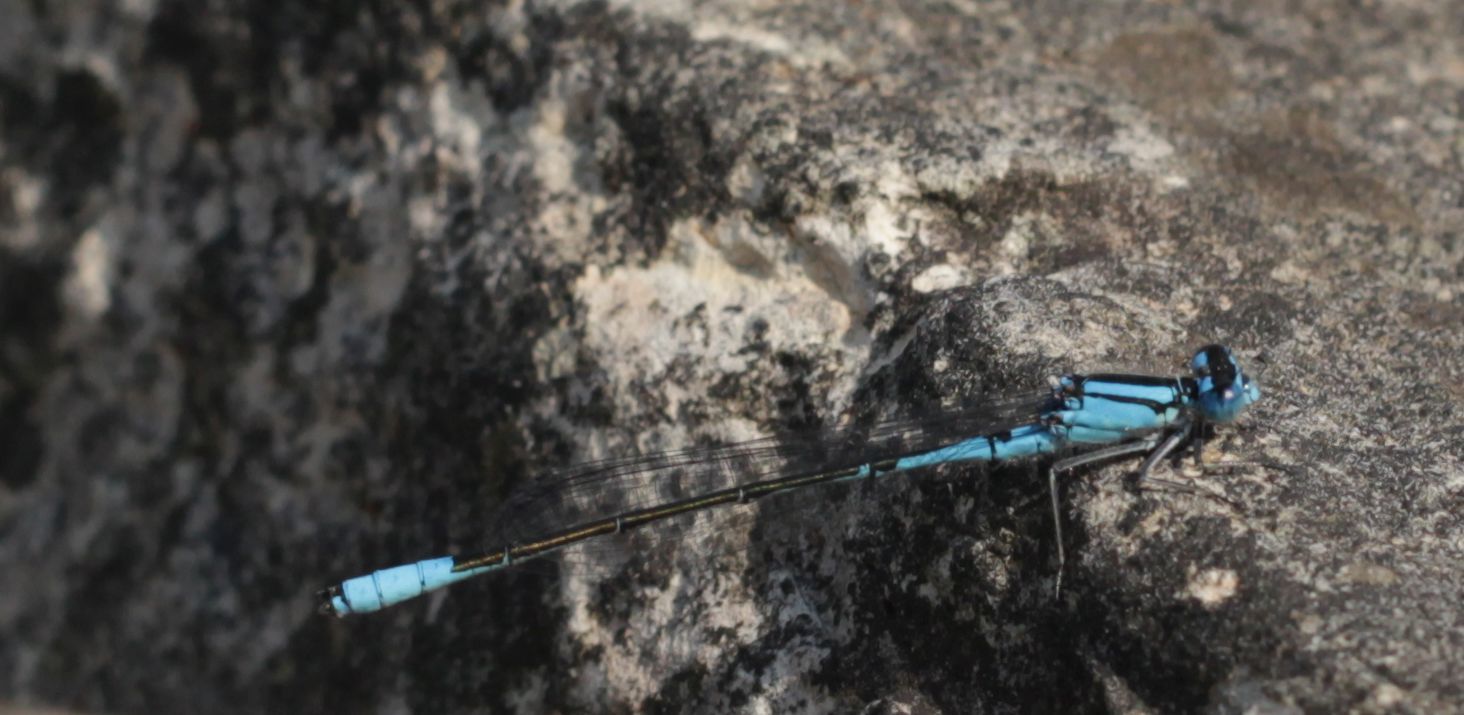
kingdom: Animalia
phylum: Arthropoda
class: Insecta
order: Odonata
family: Coenagrionidae
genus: Enallagma
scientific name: Enallagma aspersum
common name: Azure bluet
